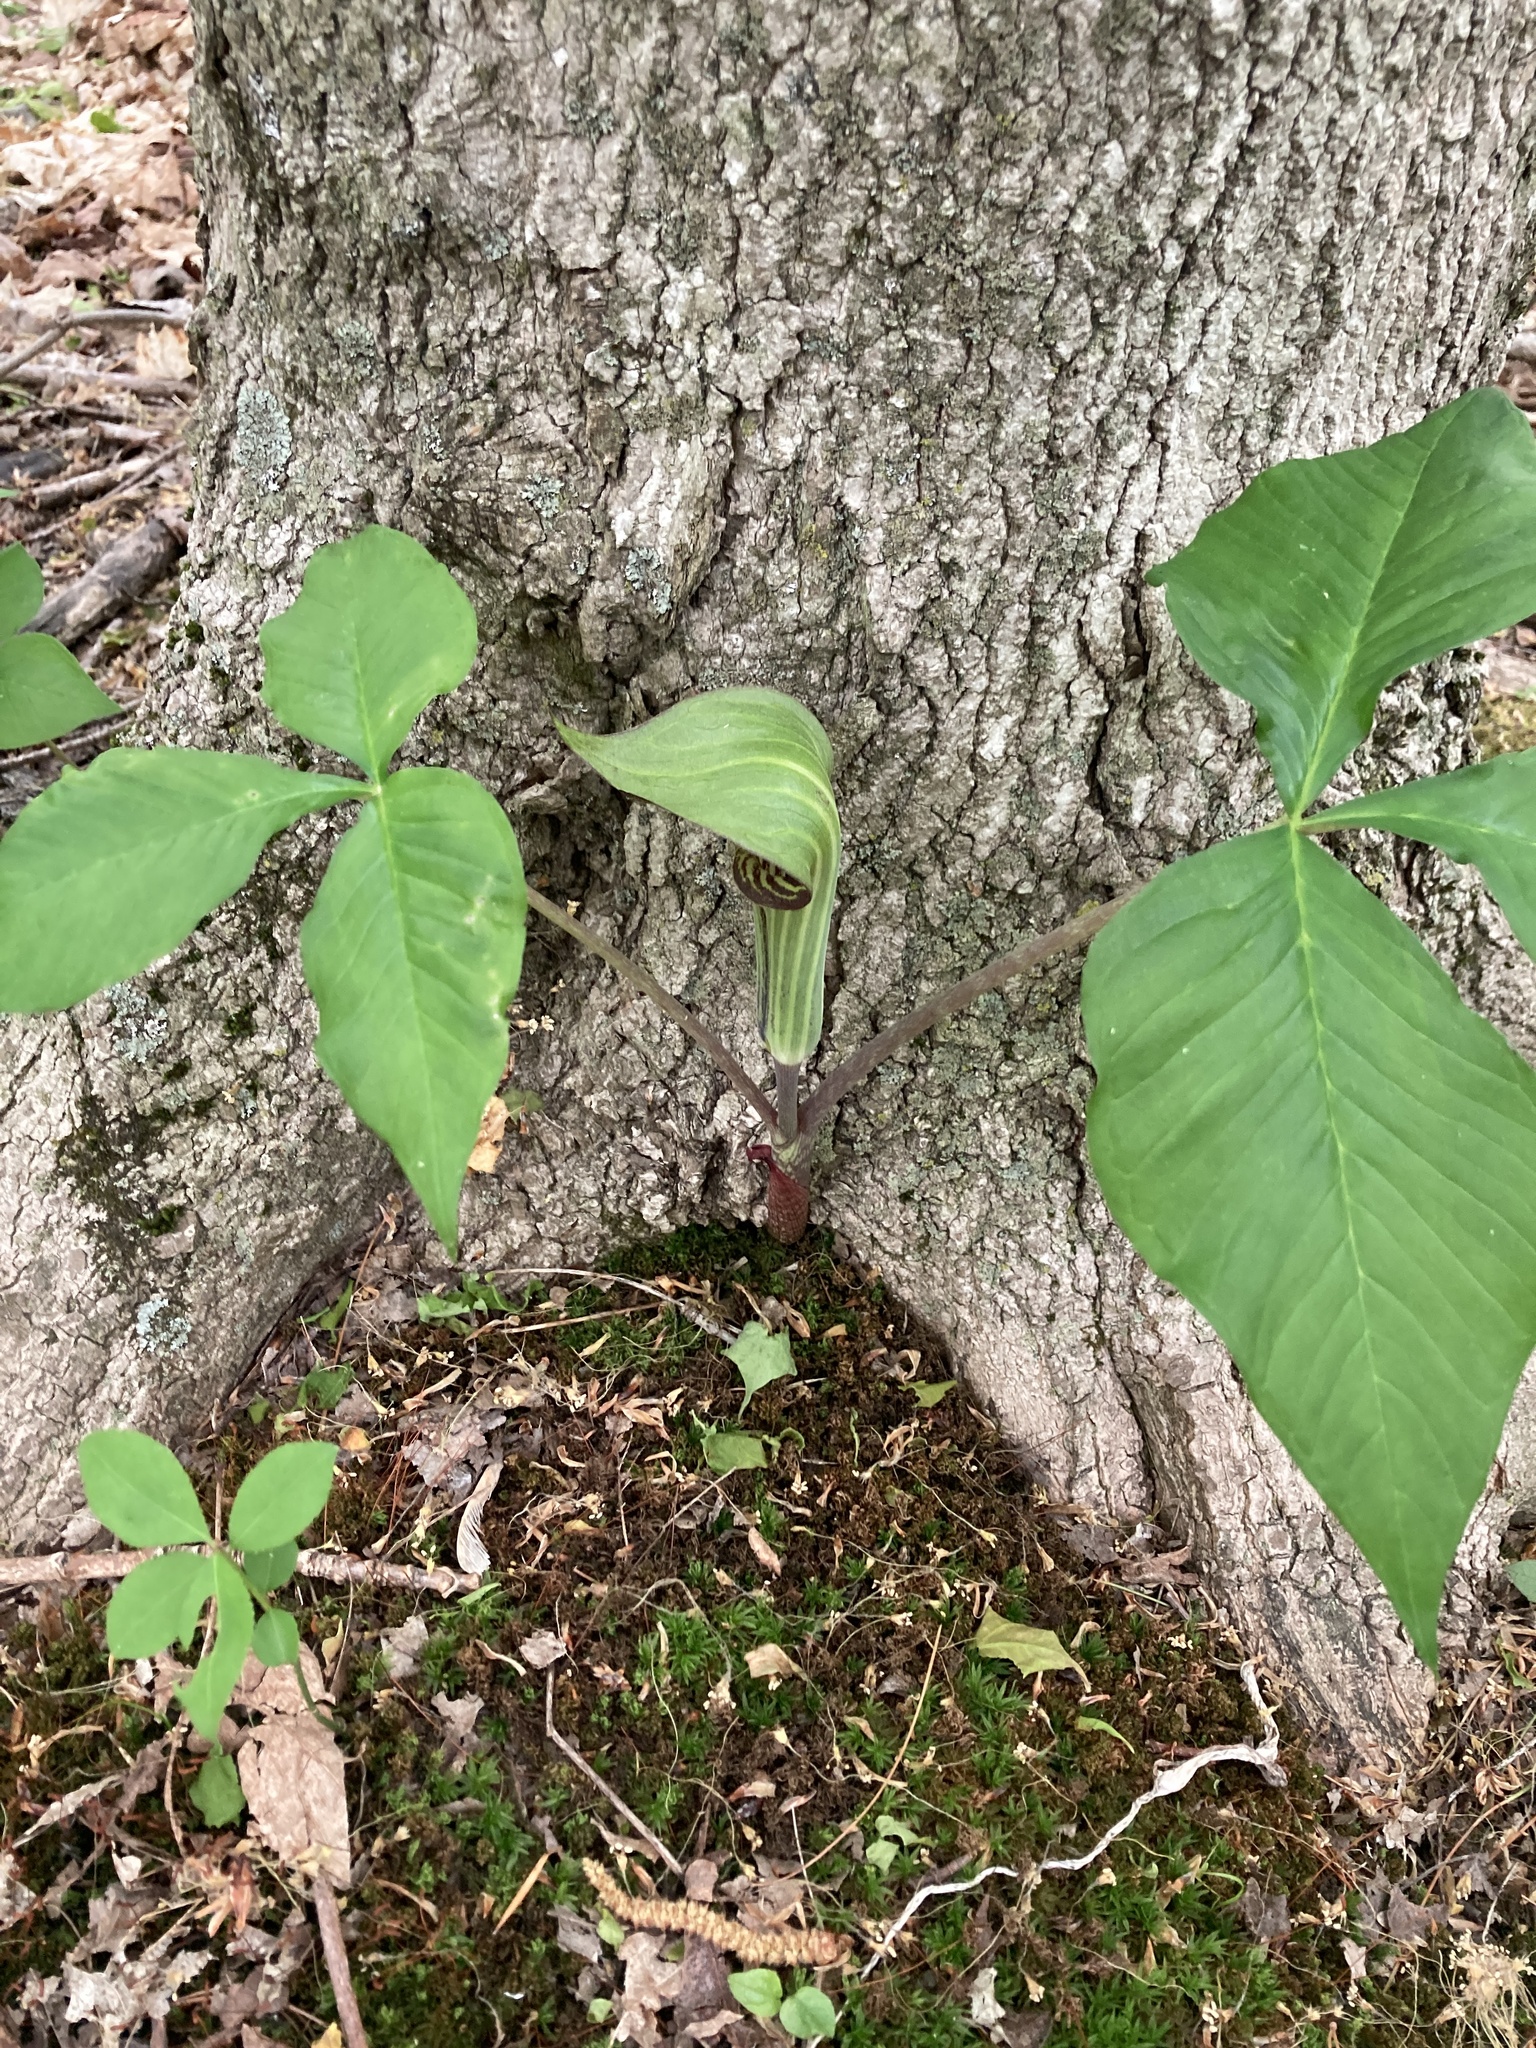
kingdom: Plantae
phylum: Tracheophyta
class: Liliopsida
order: Alismatales
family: Araceae
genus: Arisaema
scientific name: Arisaema triphyllum
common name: Jack-in-the-pulpit
